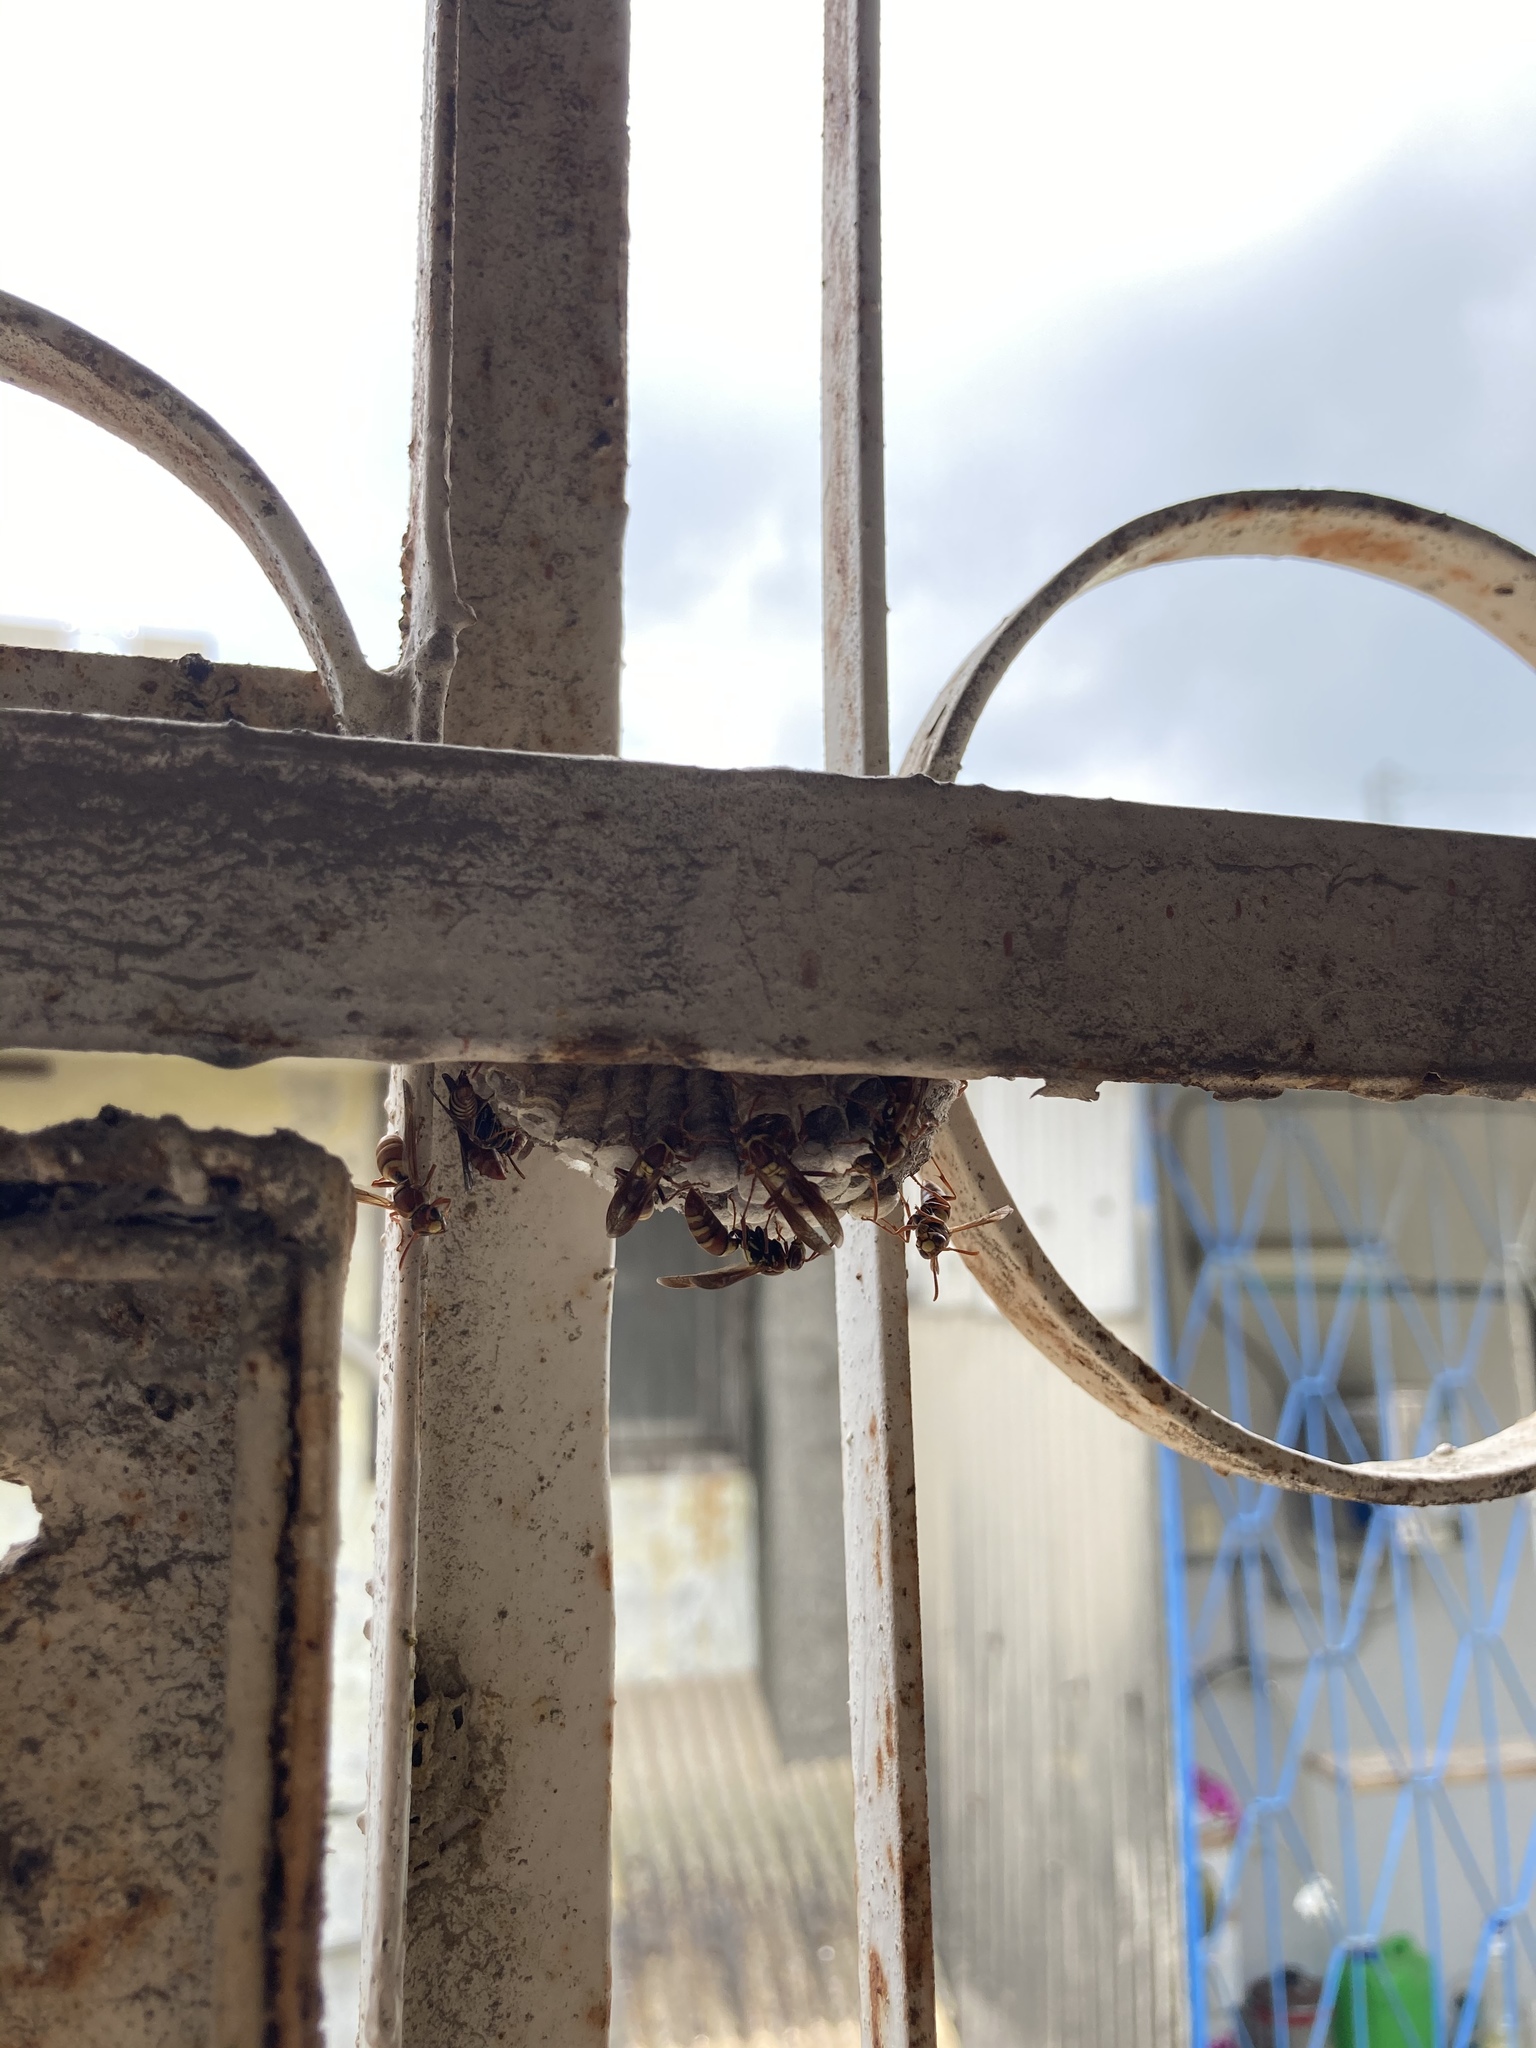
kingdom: Animalia
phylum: Arthropoda
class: Insecta
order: Hymenoptera
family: Eumenidae
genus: Polistes
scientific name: Polistes shirakii
